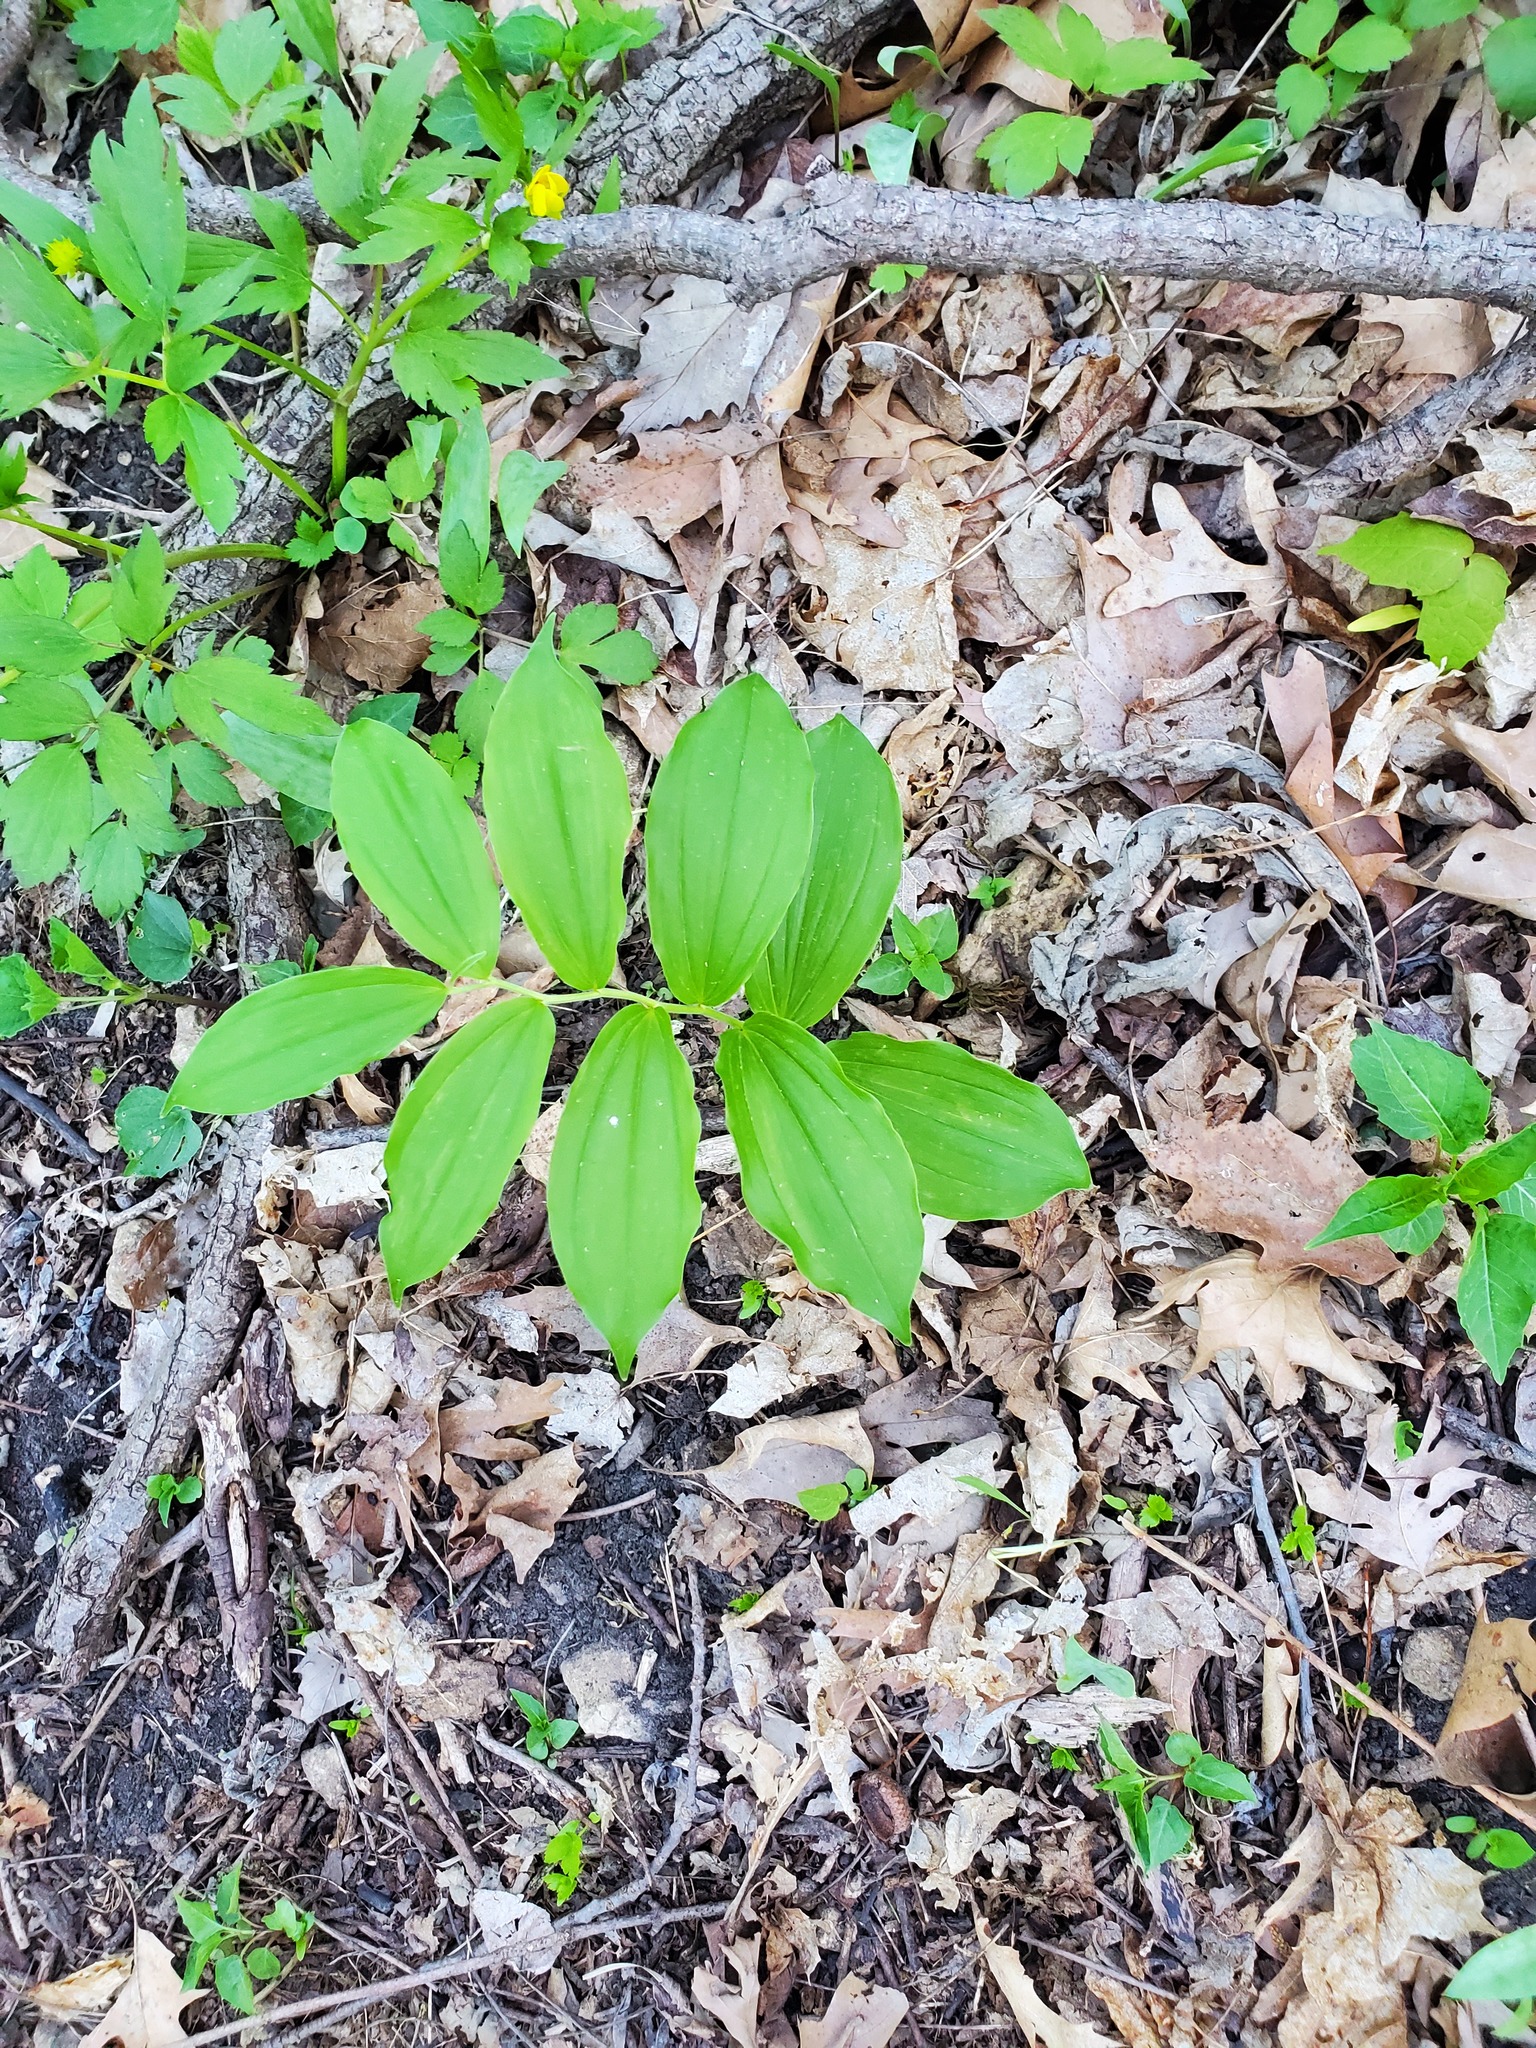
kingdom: Plantae
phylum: Tracheophyta
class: Liliopsida
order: Asparagales
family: Asparagaceae
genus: Maianthemum
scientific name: Maianthemum racemosum
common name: False spikenard
